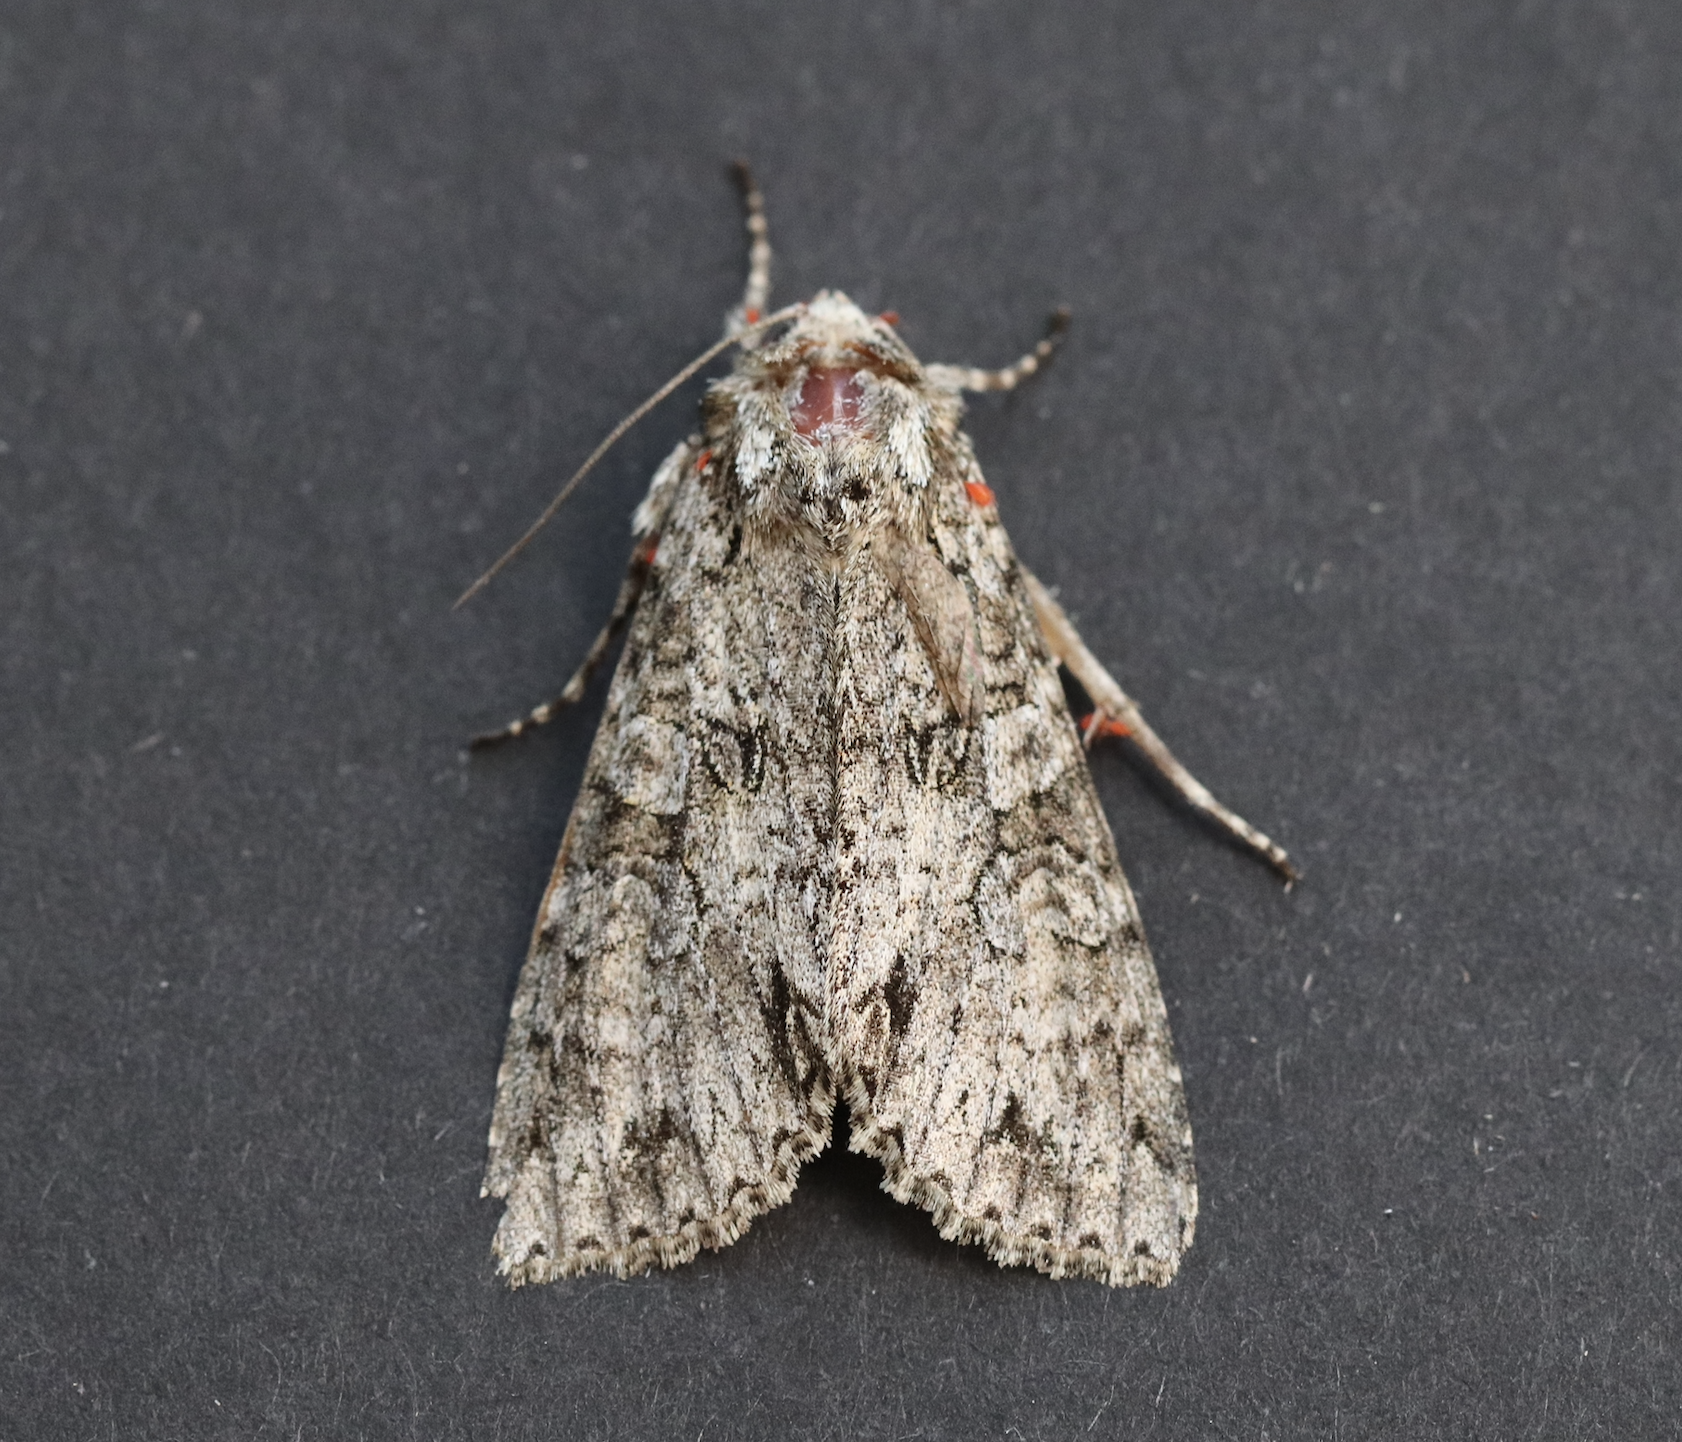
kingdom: Animalia
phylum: Arthropoda
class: Insecta
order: Lepidoptera
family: Noctuidae
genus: Polia
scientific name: Polia nebulosa
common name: Grey arches
